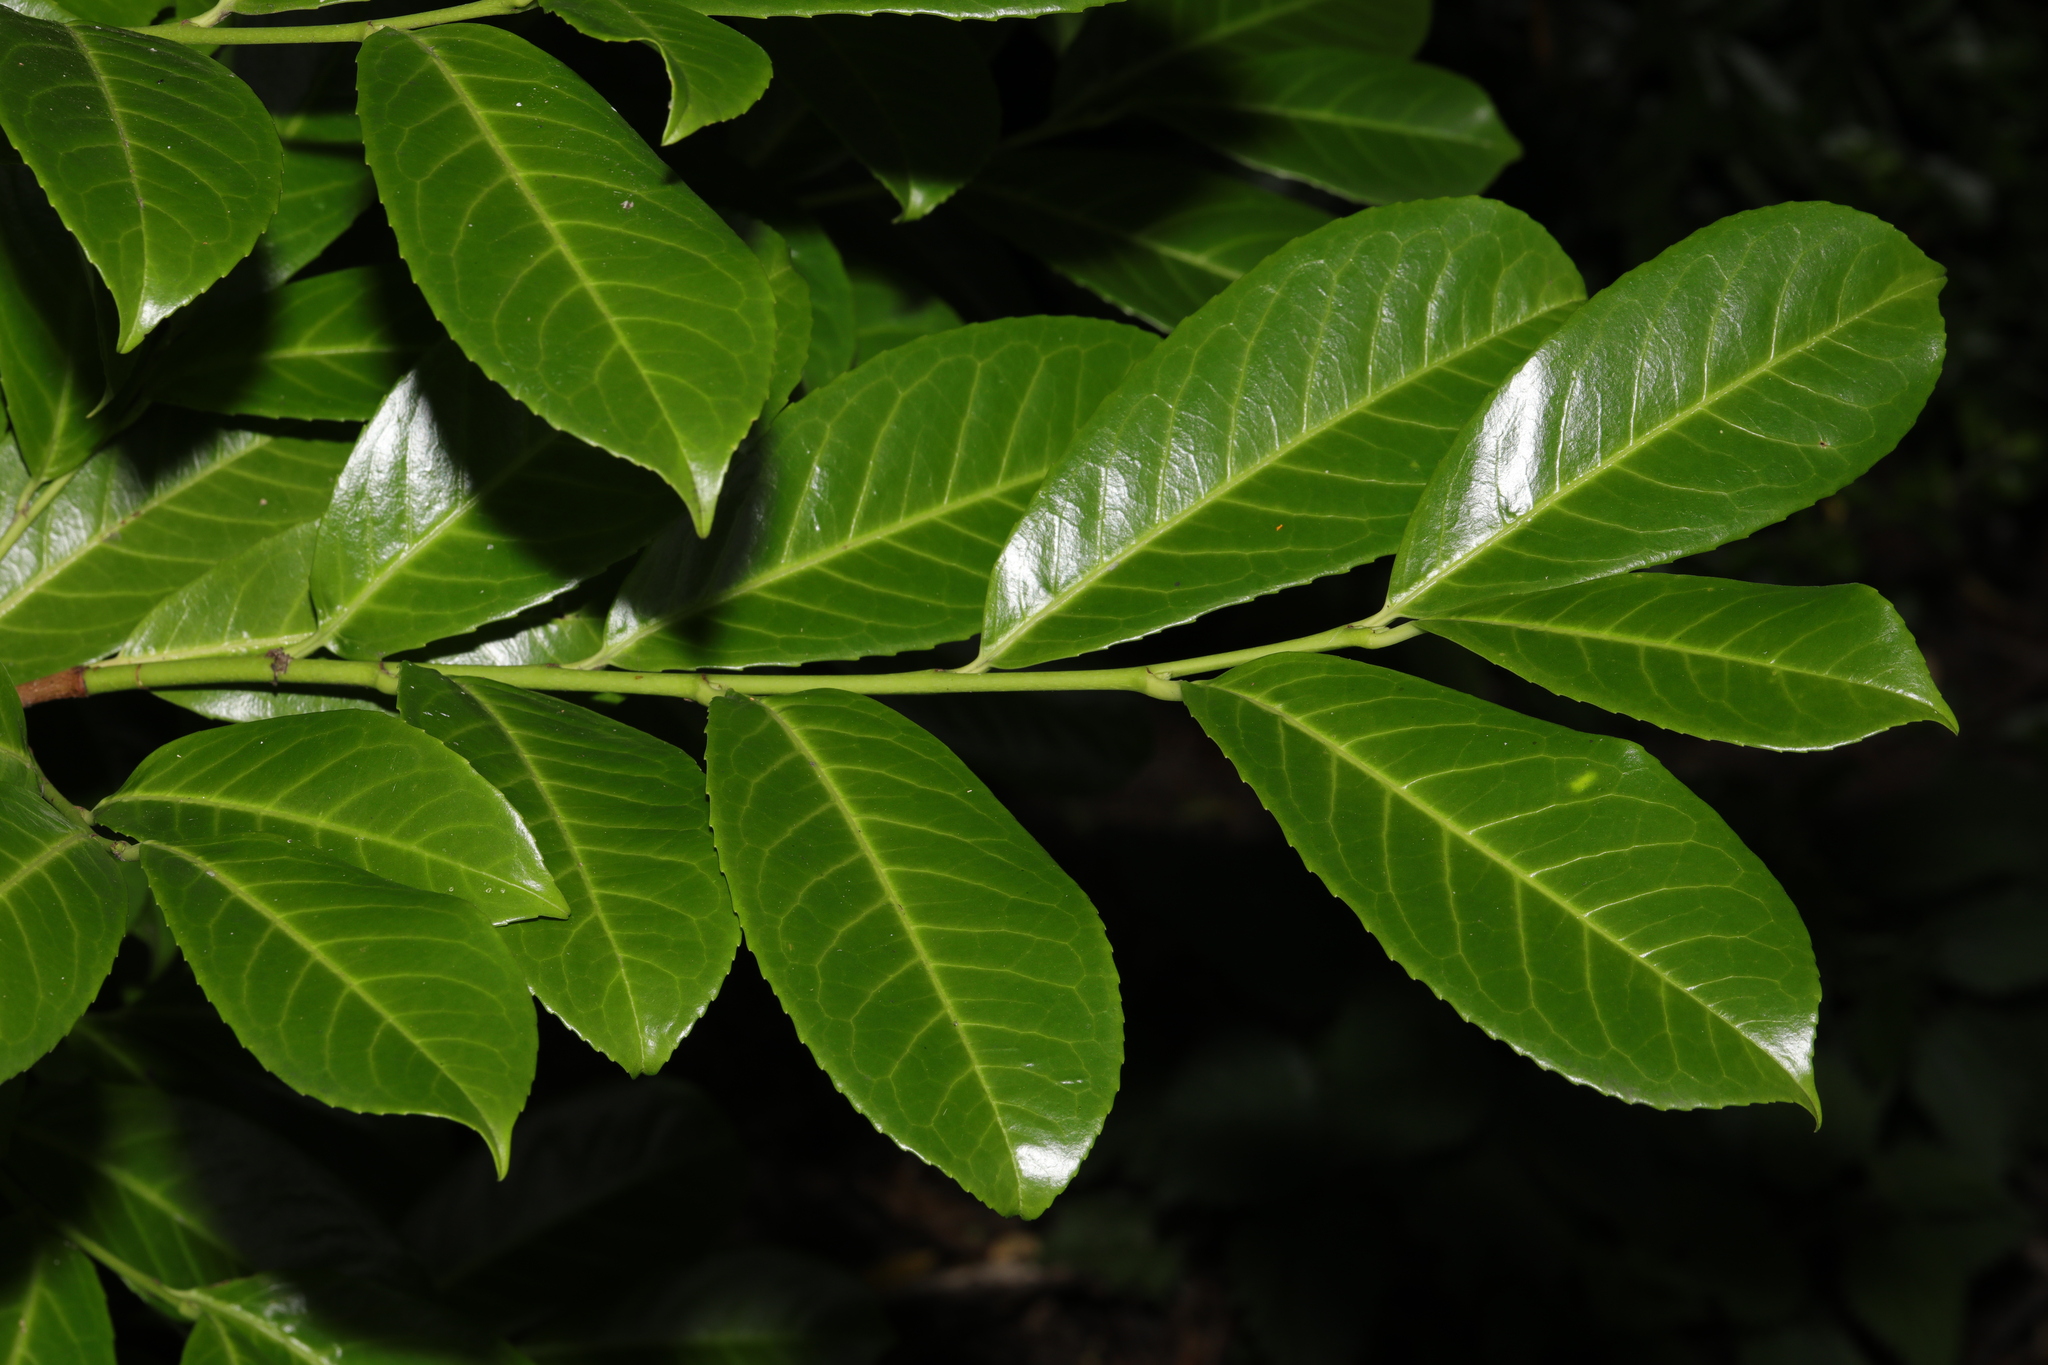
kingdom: Plantae
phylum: Tracheophyta
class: Magnoliopsida
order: Rosales
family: Rosaceae
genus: Prunus
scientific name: Prunus laurocerasus
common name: Cherry laurel
